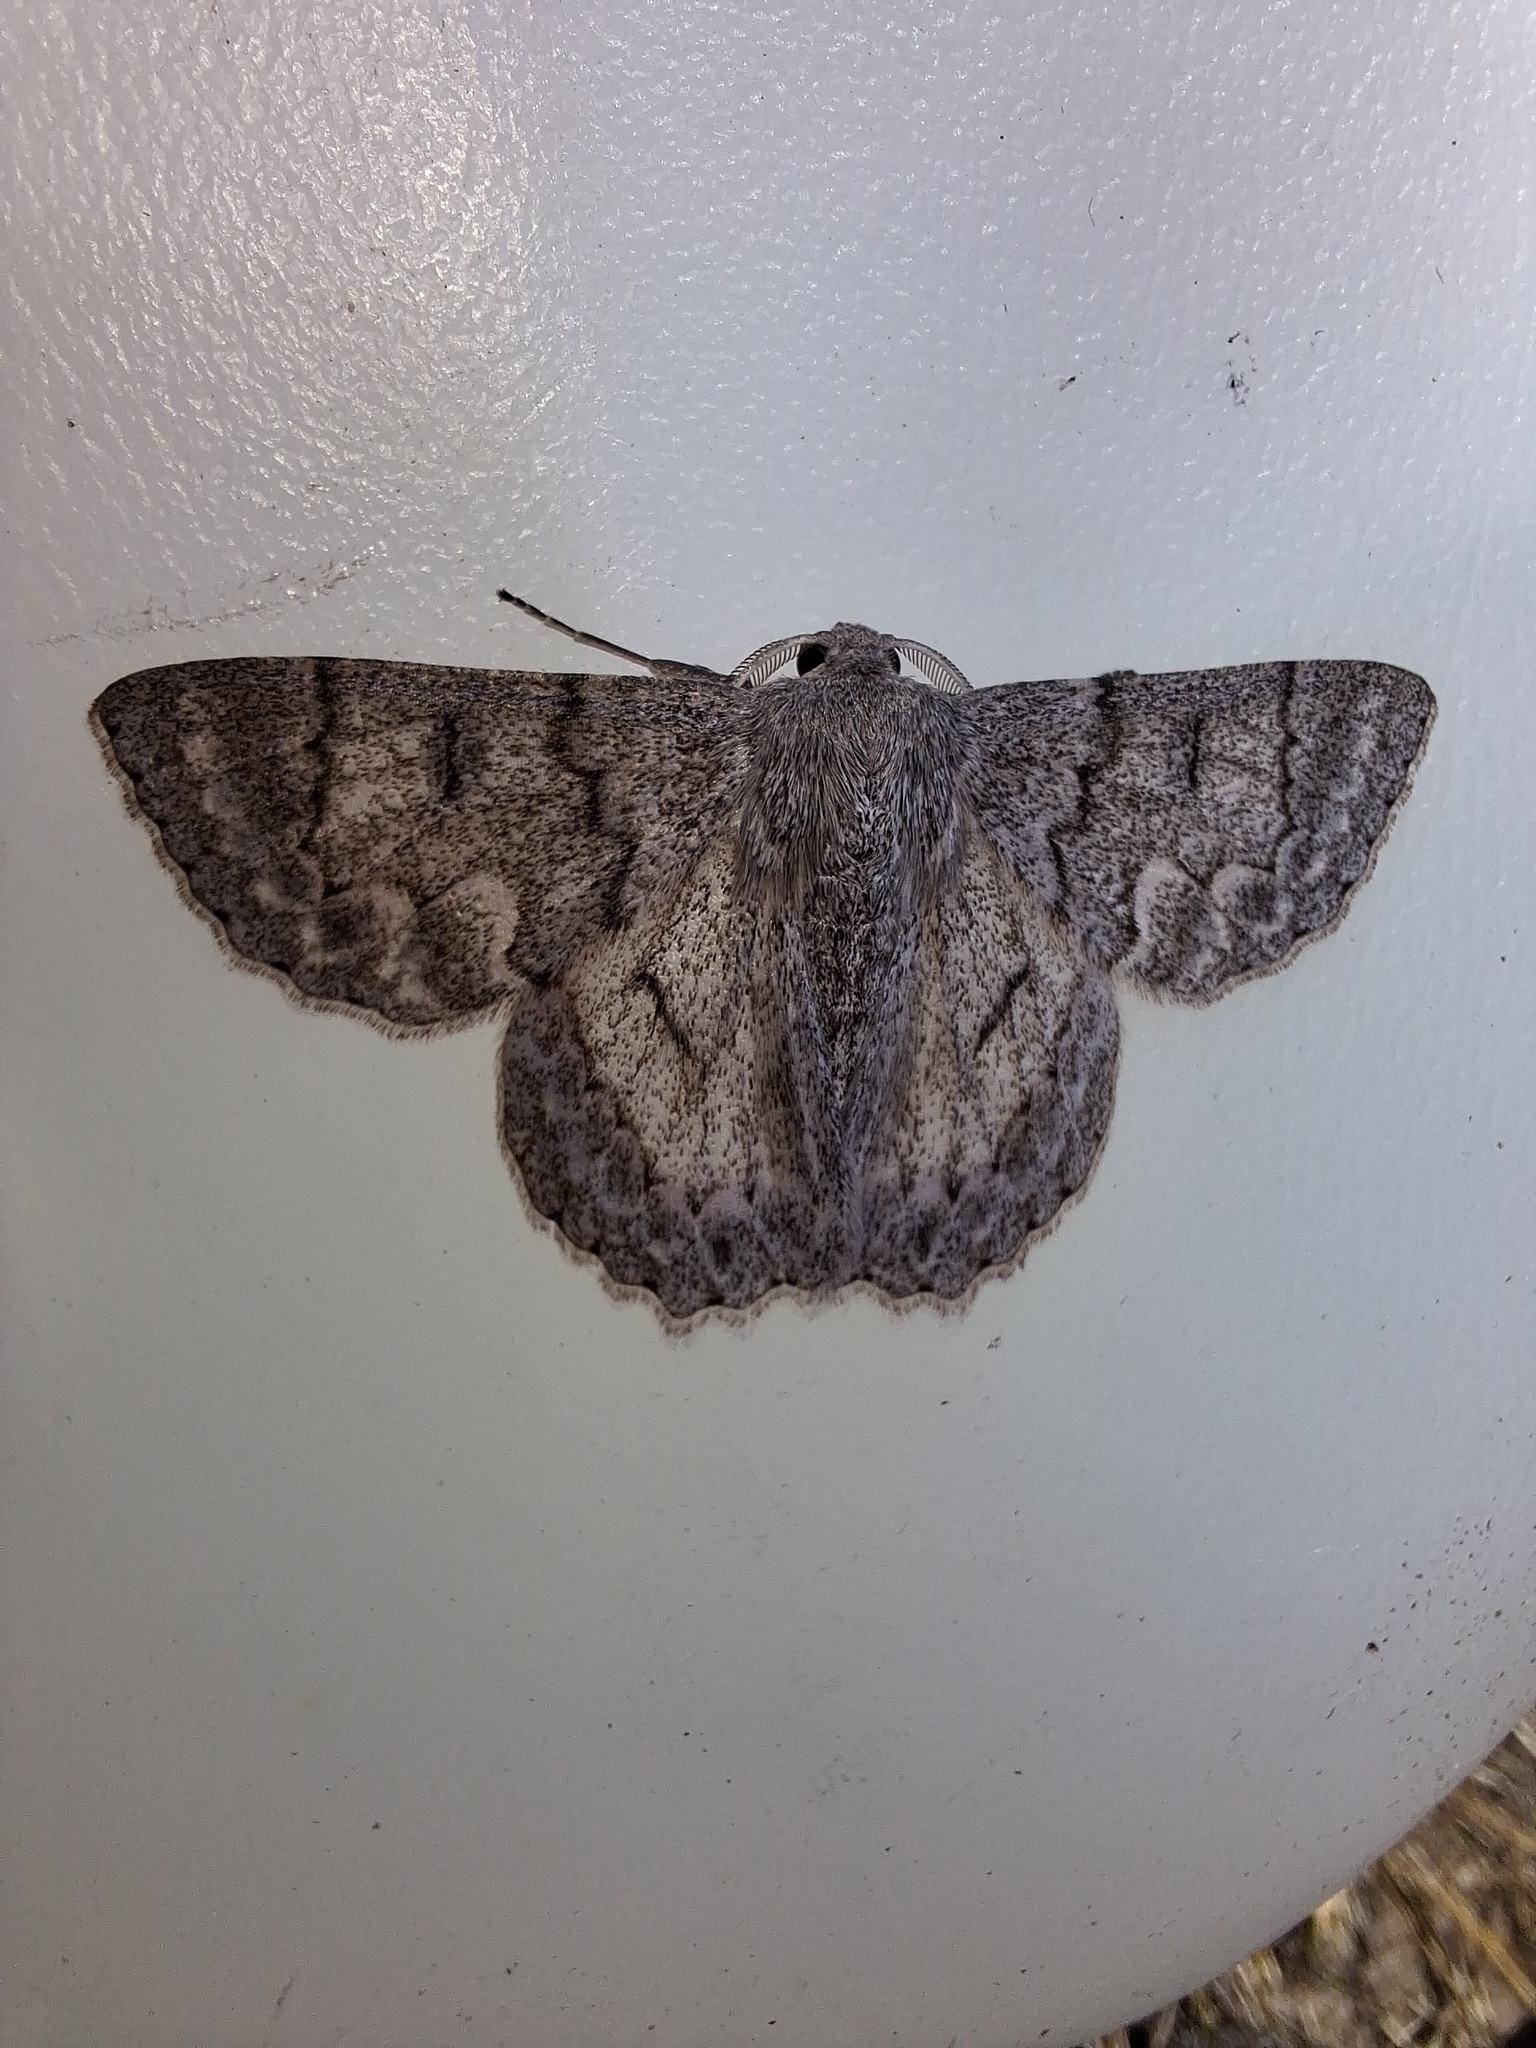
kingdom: Animalia
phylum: Arthropoda
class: Insecta
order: Lepidoptera
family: Geometridae
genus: Crypsiphona
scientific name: Crypsiphona ocultaria
